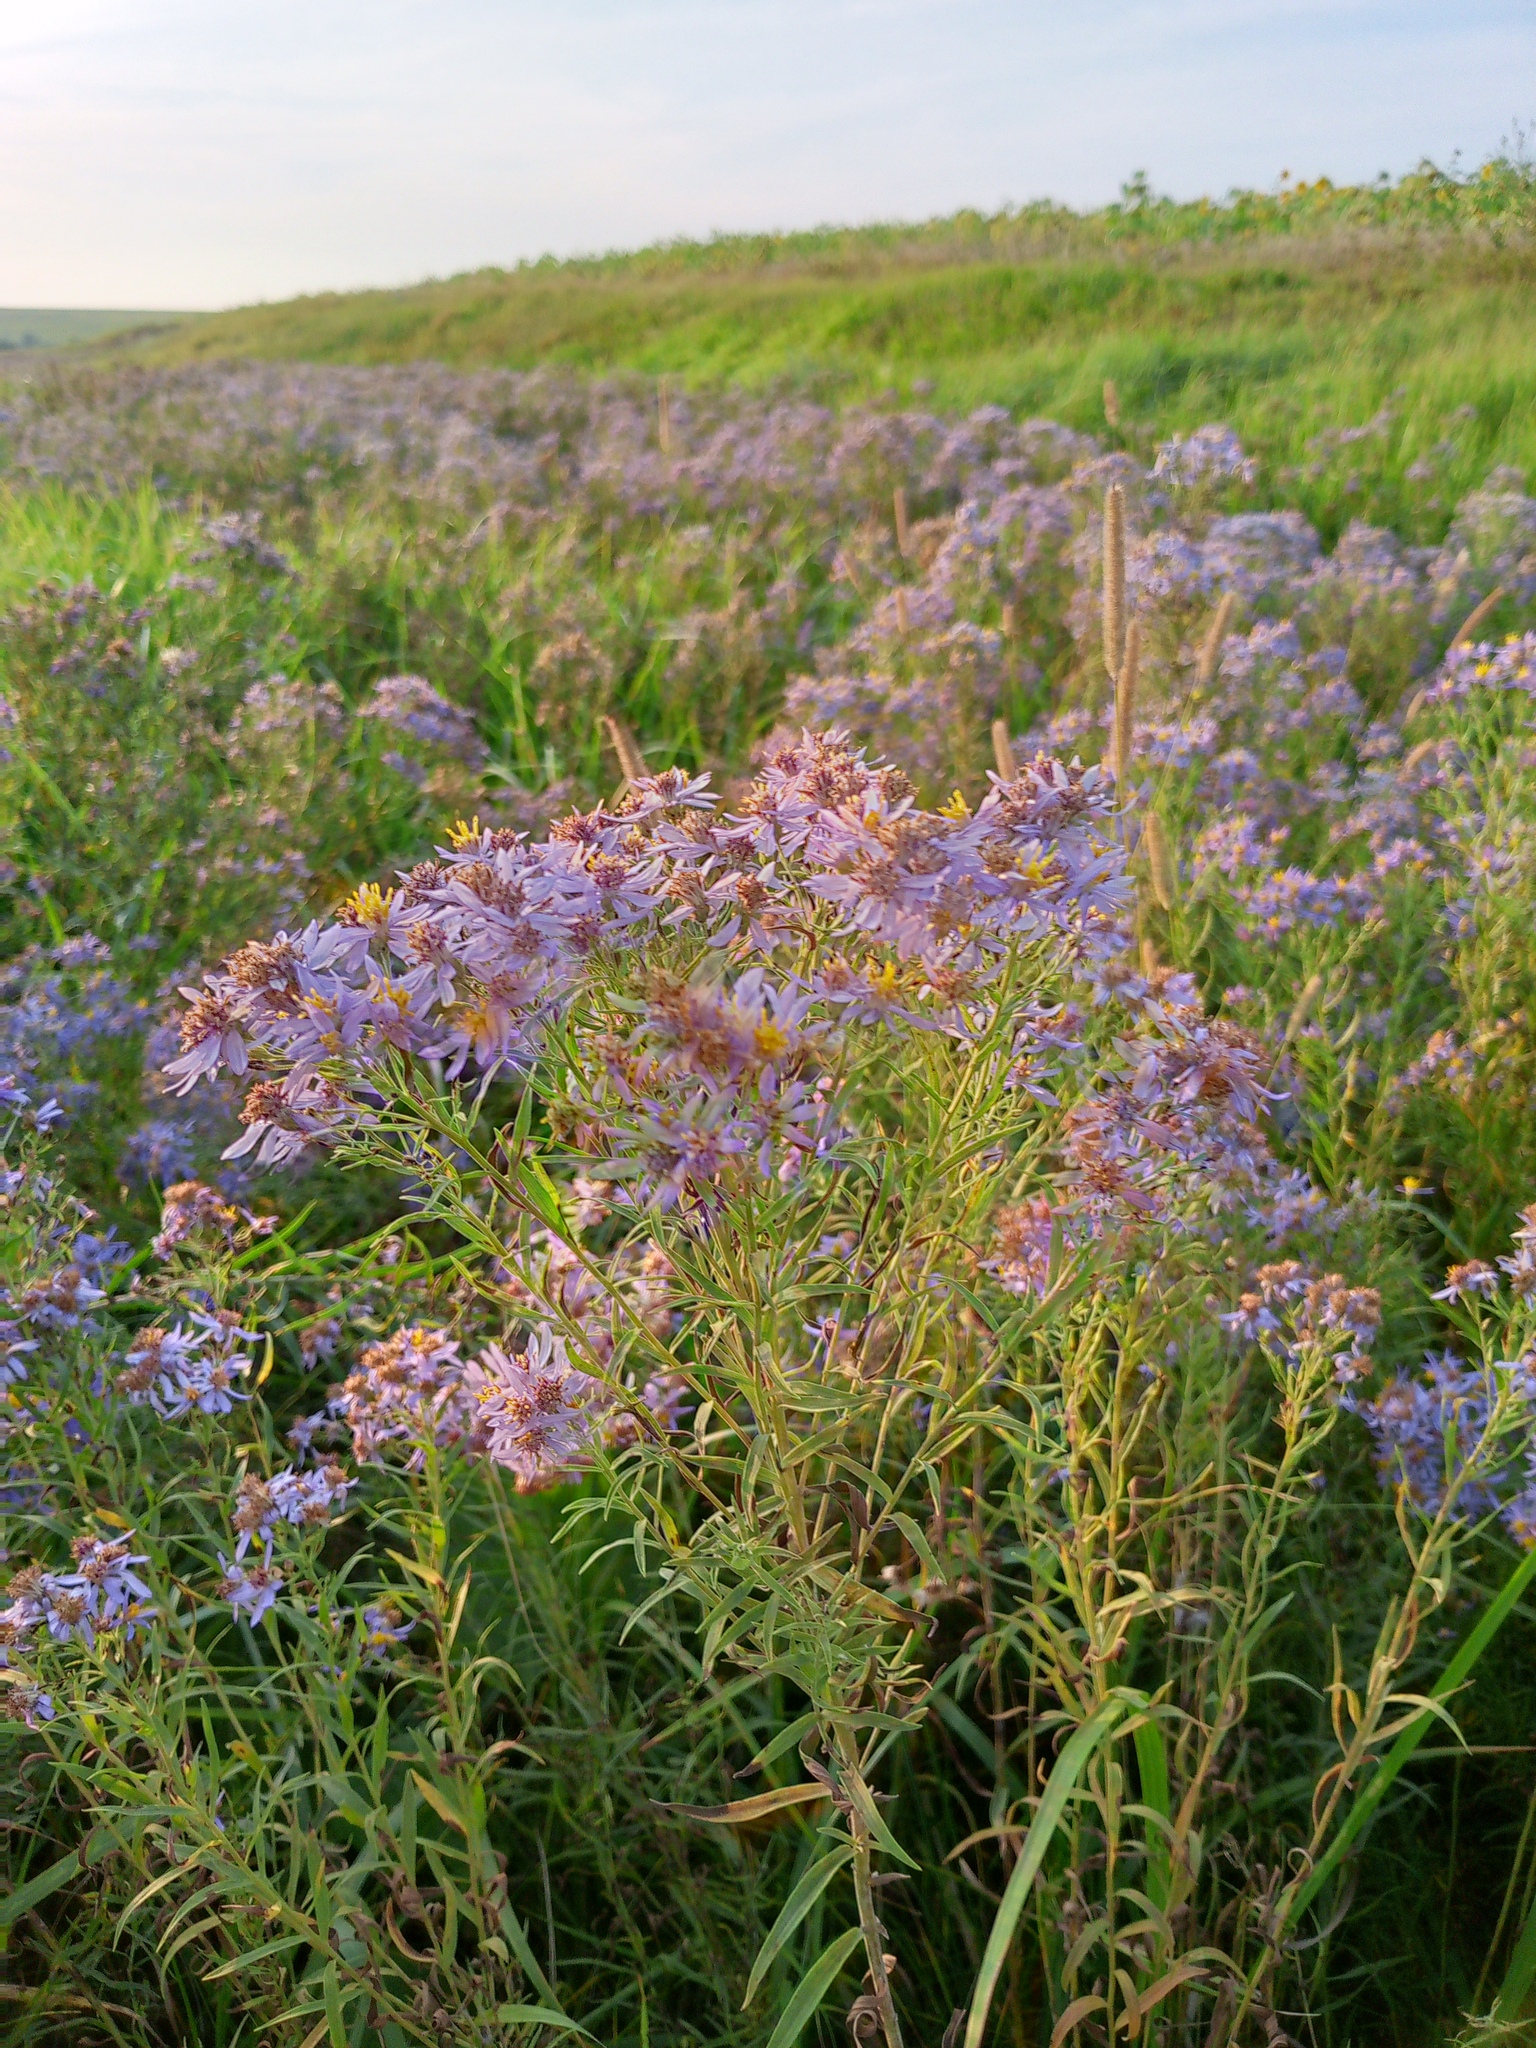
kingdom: Plantae
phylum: Tracheophyta
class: Magnoliopsida
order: Asterales
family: Asteraceae
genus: Galatella
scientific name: Galatella sedifolia
